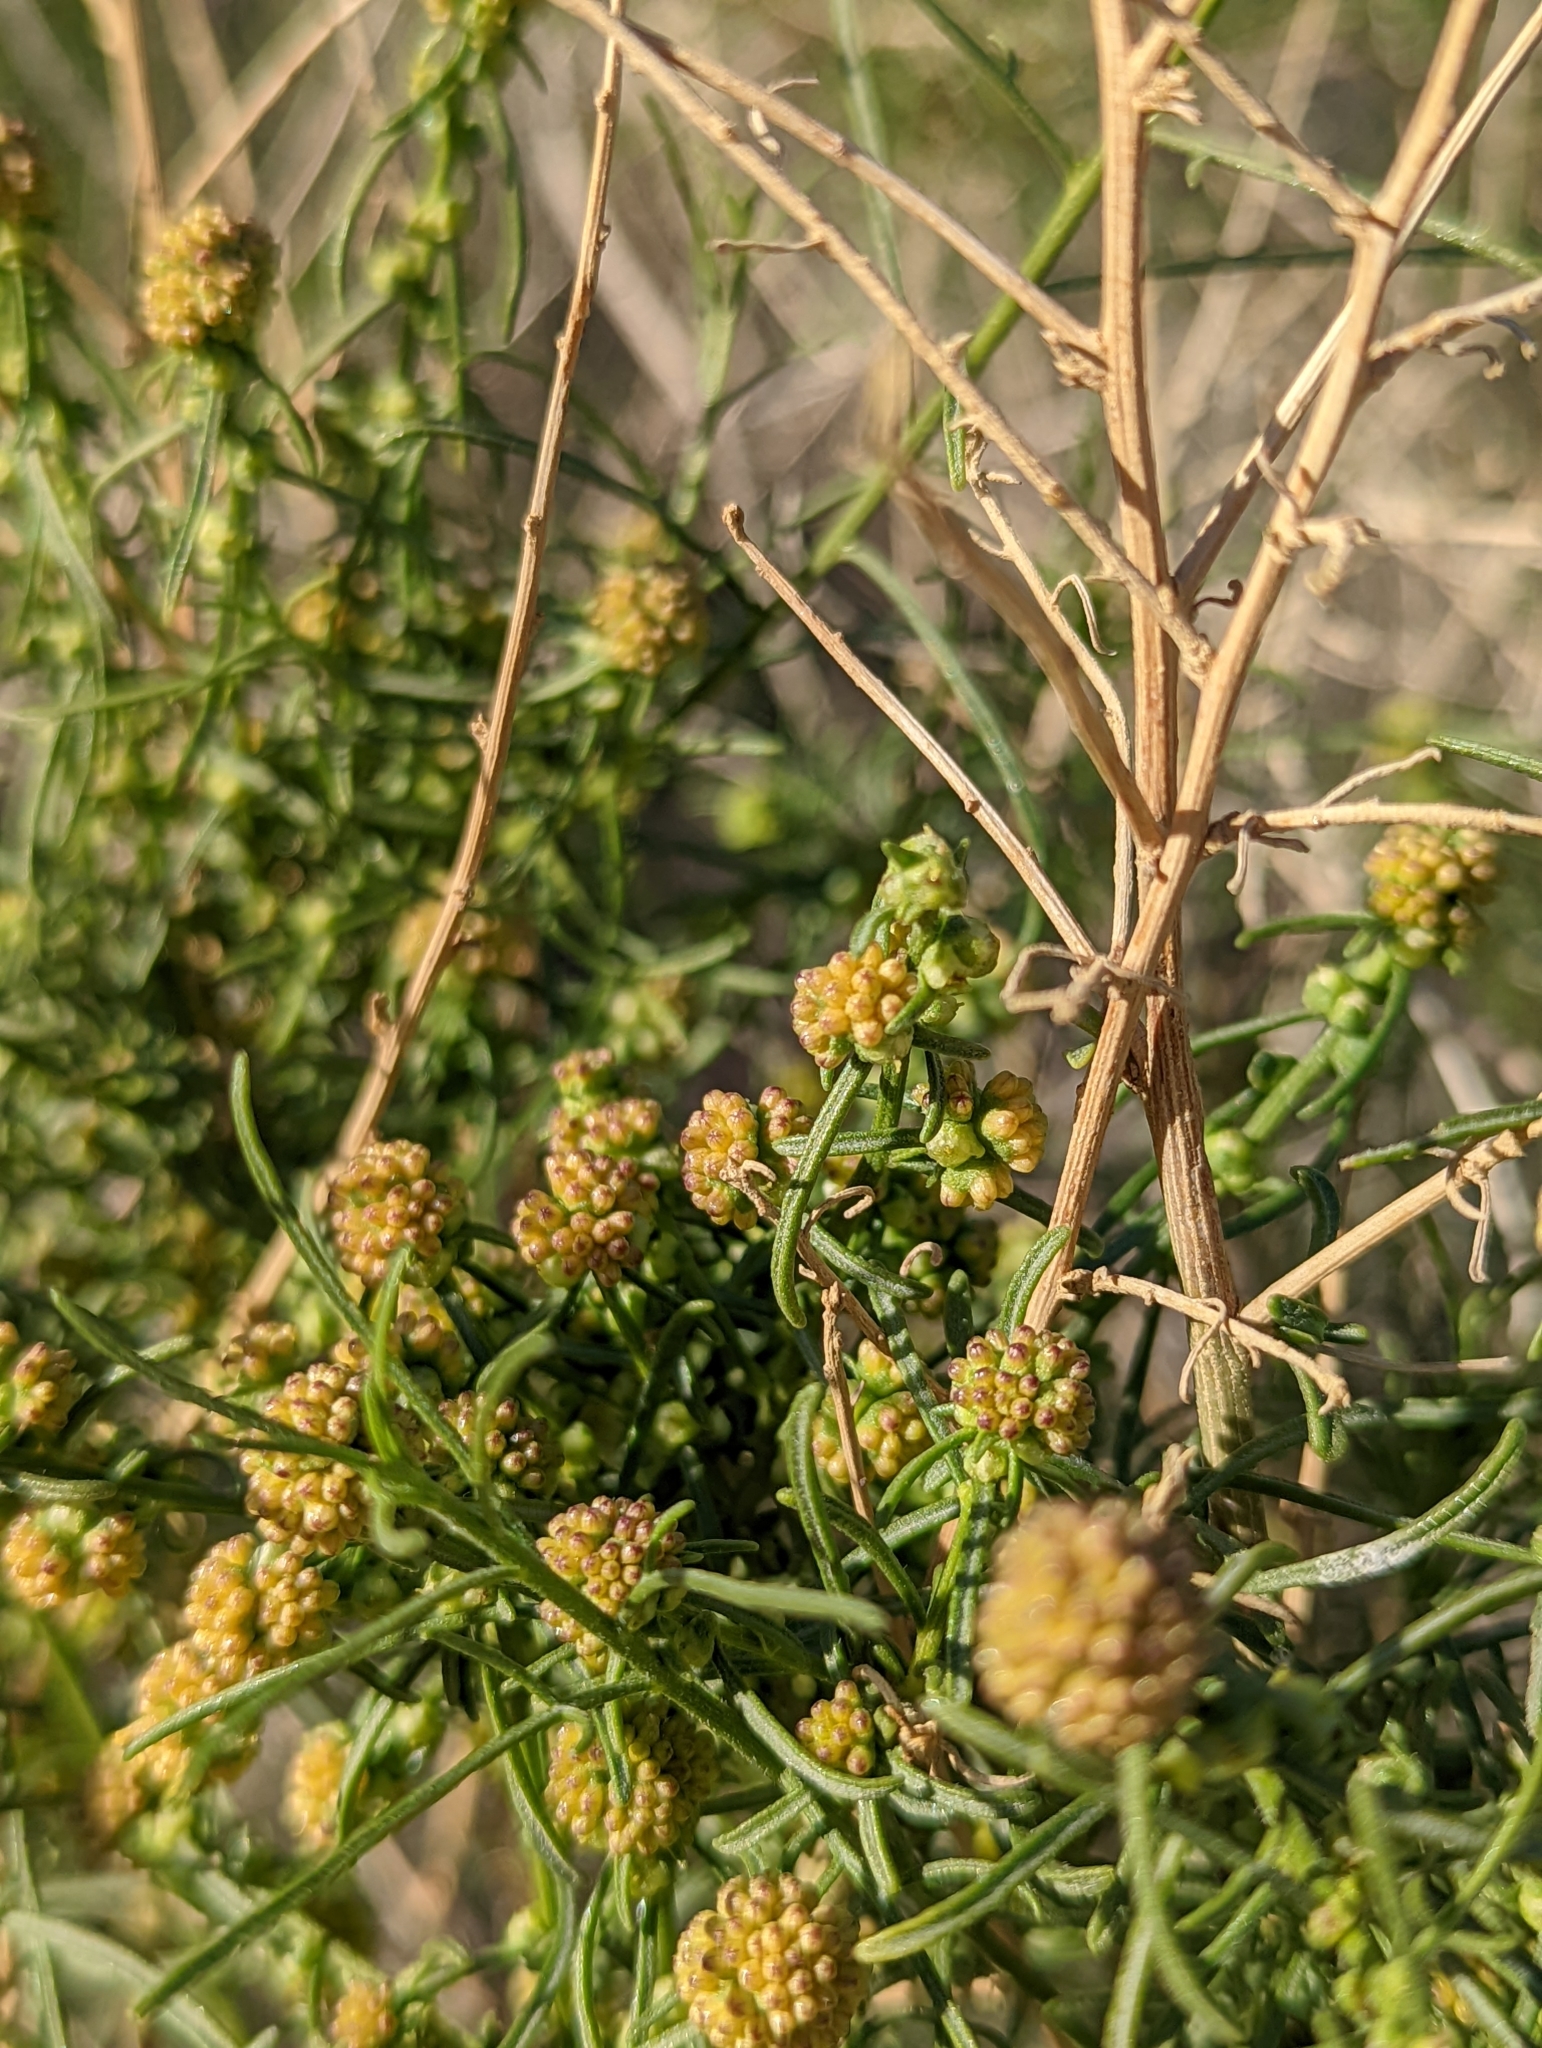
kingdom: Plantae
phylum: Tracheophyta
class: Magnoliopsida
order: Asterales
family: Asteraceae
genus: Ambrosia
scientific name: Ambrosia salsola
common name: Burrobrush
